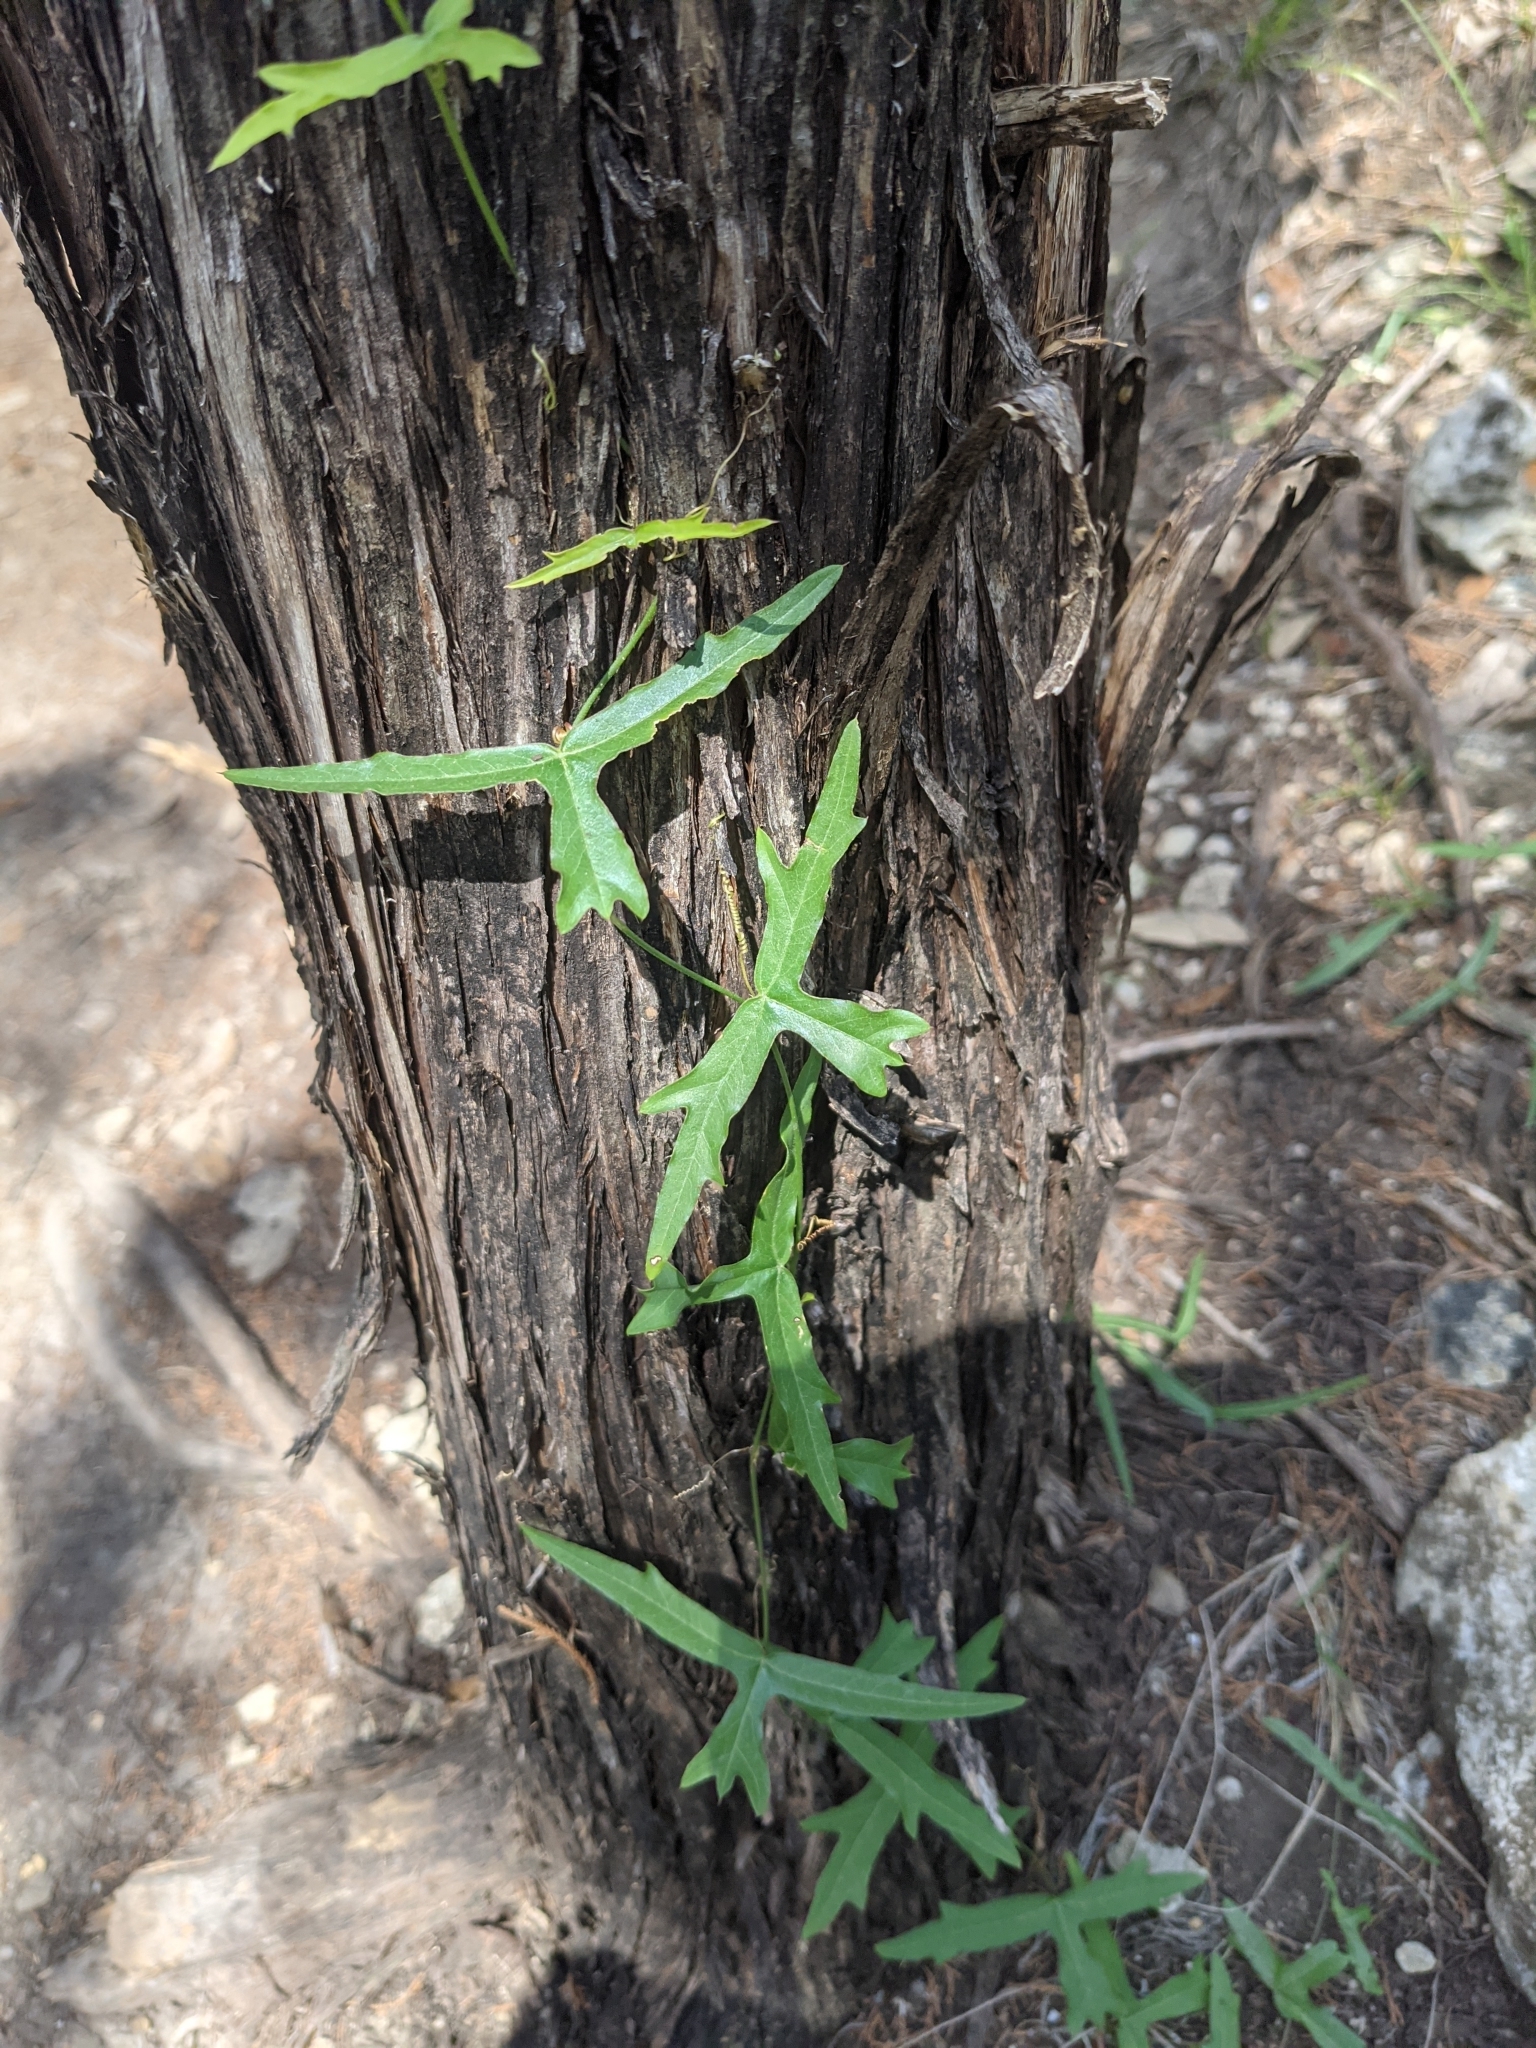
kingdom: Plantae
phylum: Tracheophyta
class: Magnoliopsida
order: Malpighiales
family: Passifloraceae
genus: Passiflora
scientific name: Passiflora tenuiloba
